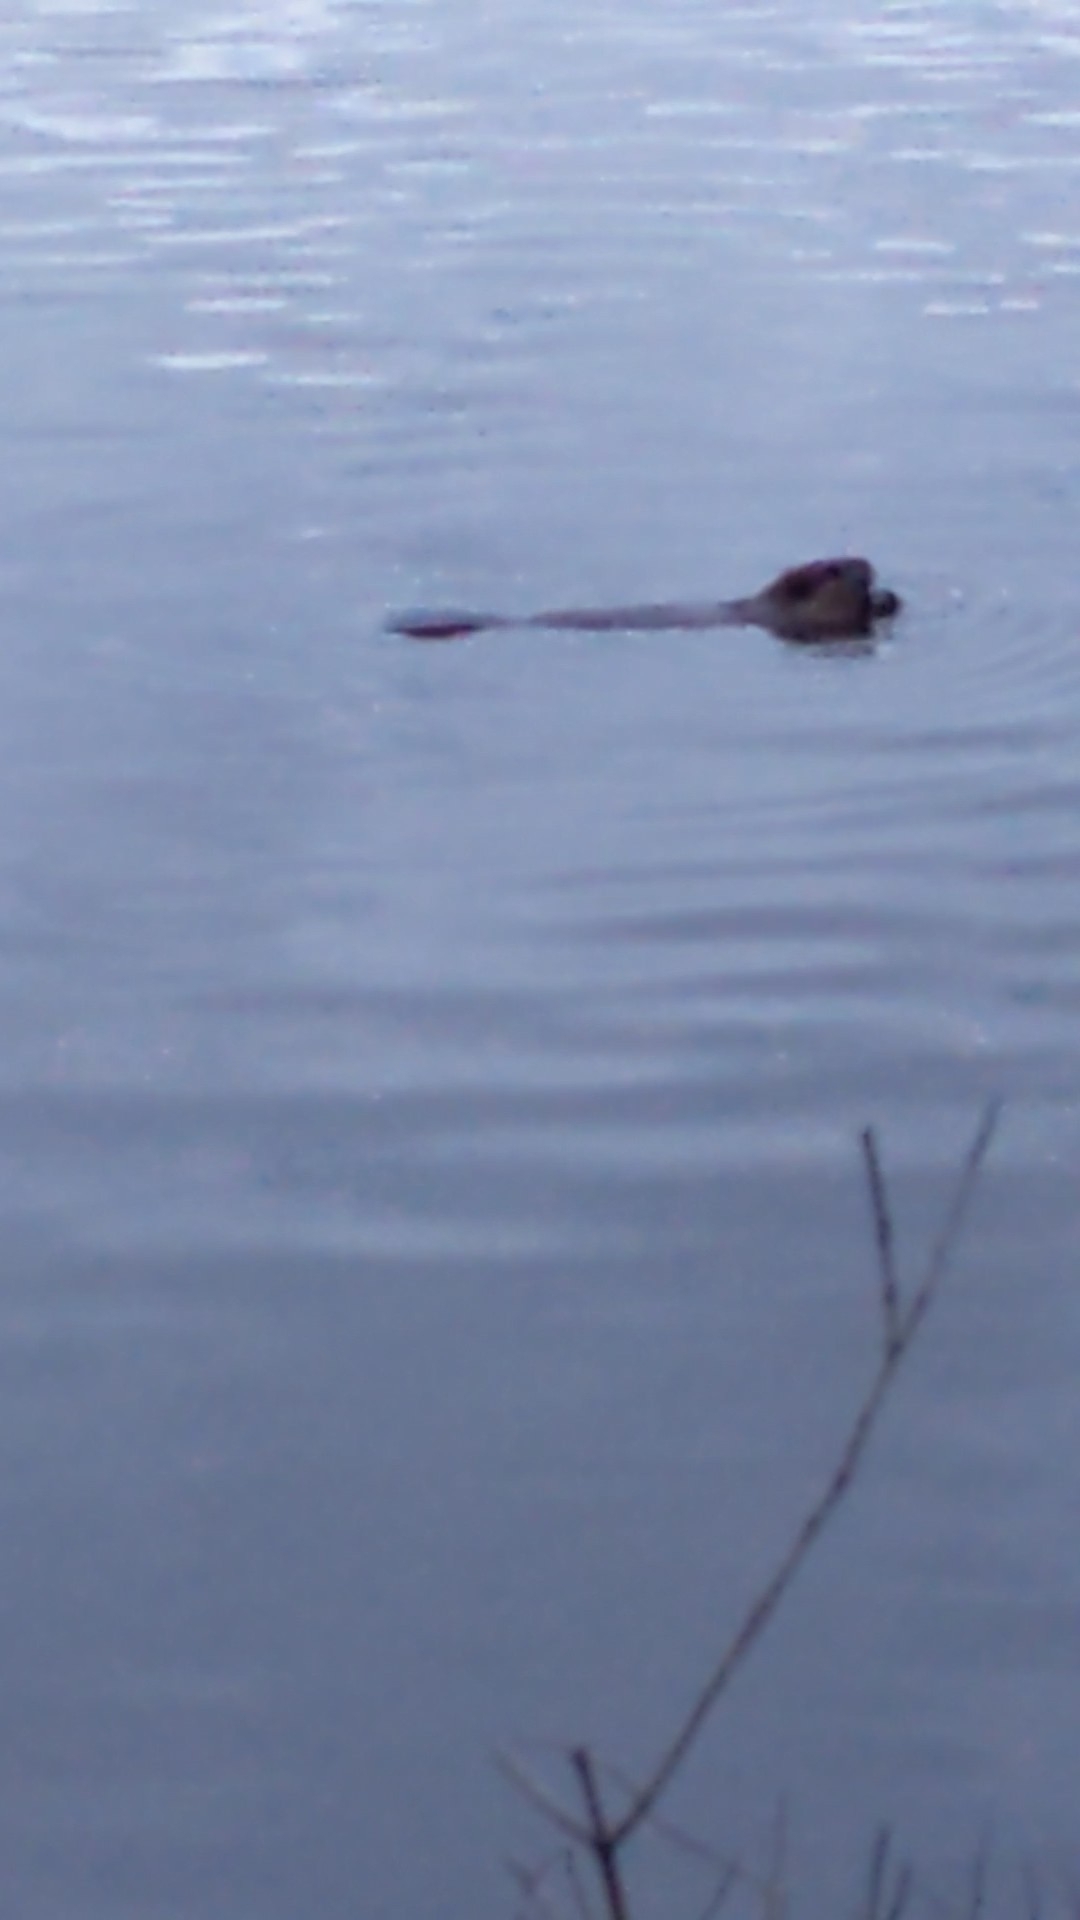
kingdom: Animalia
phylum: Chordata
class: Mammalia
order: Rodentia
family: Castoridae
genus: Castor
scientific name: Castor canadensis
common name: American beaver
